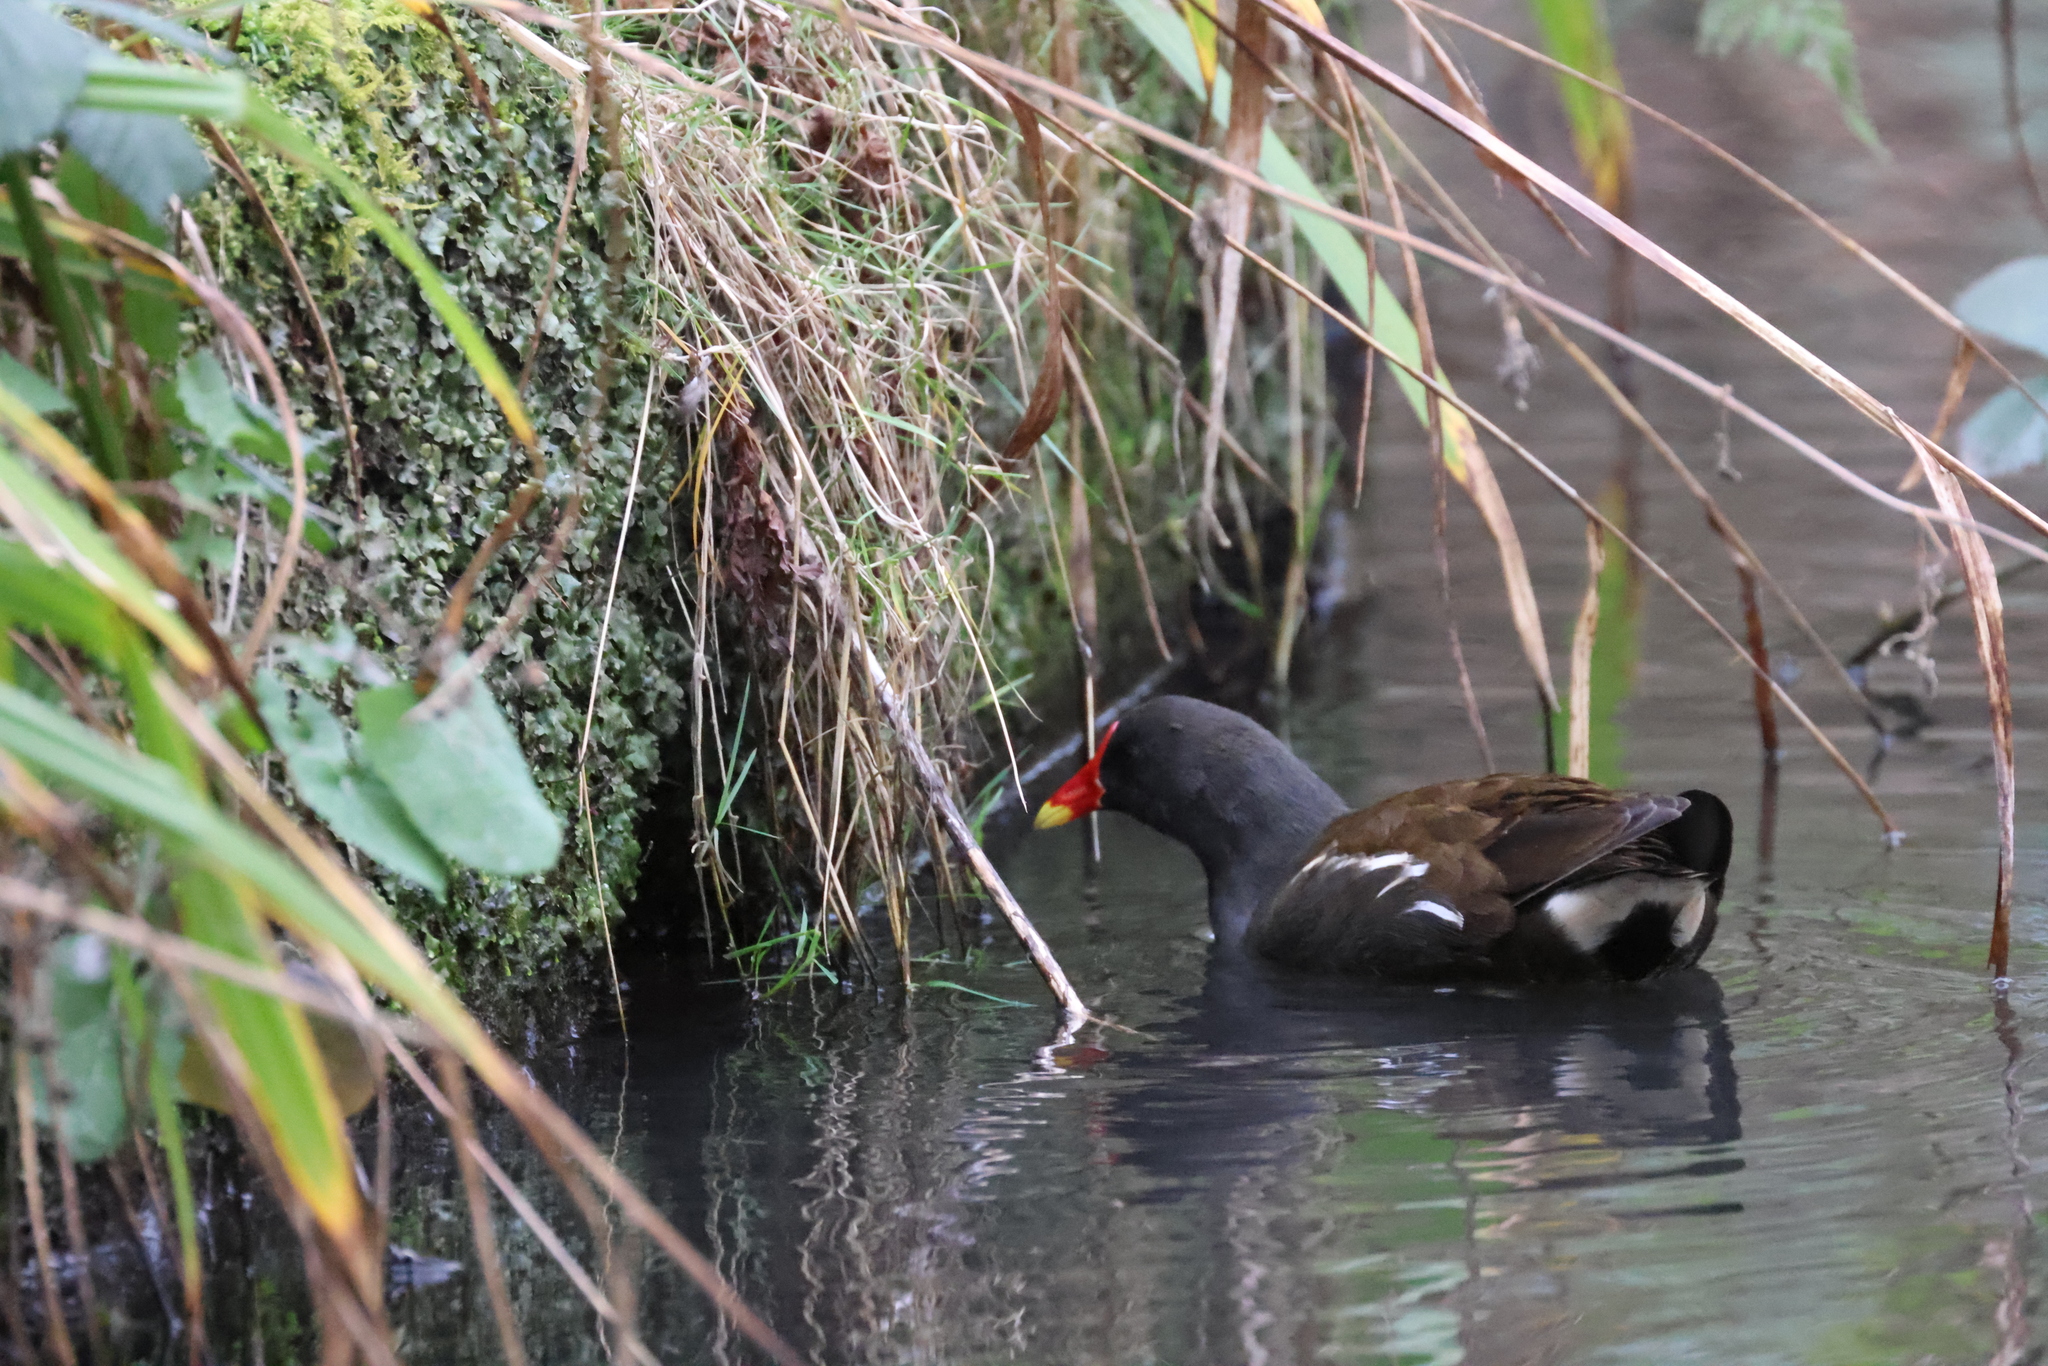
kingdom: Animalia
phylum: Chordata
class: Aves
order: Gruiformes
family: Rallidae
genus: Gallinula
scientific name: Gallinula chloropus
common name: Common moorhen
